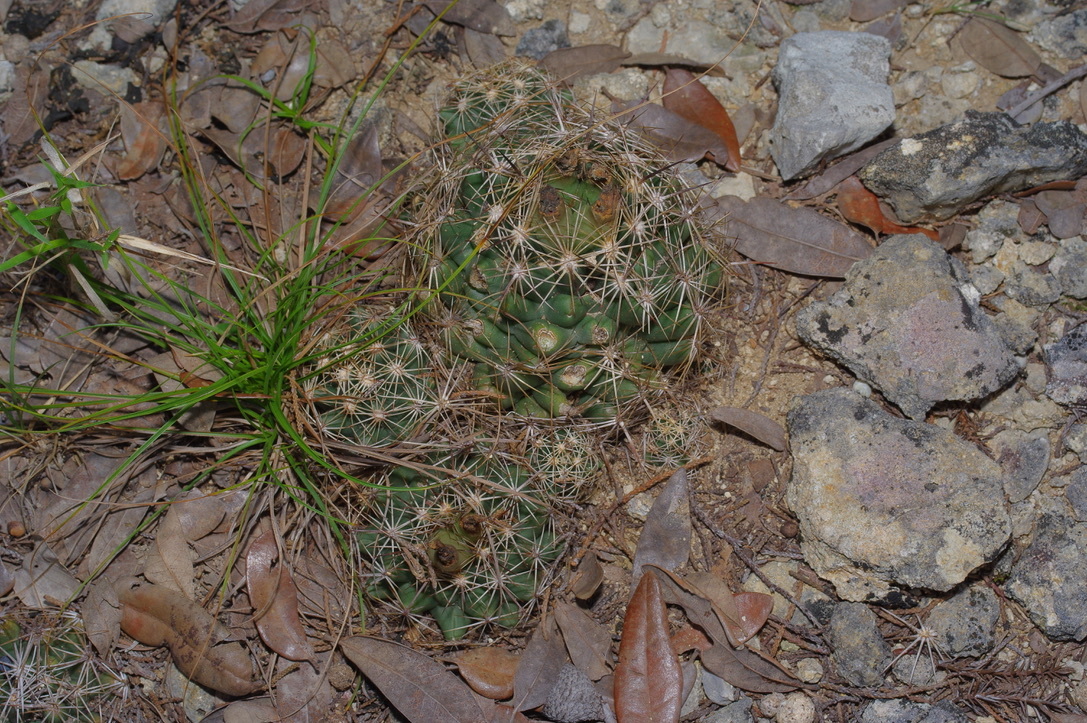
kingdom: Plantae
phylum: Tracheophyta
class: Magnoliopsida
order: Caryophyllales
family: Cactaceae
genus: Coryphantha
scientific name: Coryphantha sulcata
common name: Finger cactus
